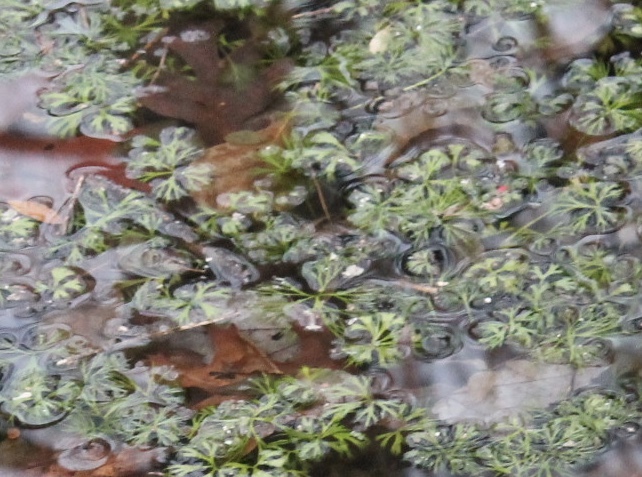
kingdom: Plantae
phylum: Tracheophyta
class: Magnoliopsida
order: Ranunculales
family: Ranunculaceae
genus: Ranunculus
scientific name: Ranunculus flabellaris
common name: Yellow water-crowfoot
